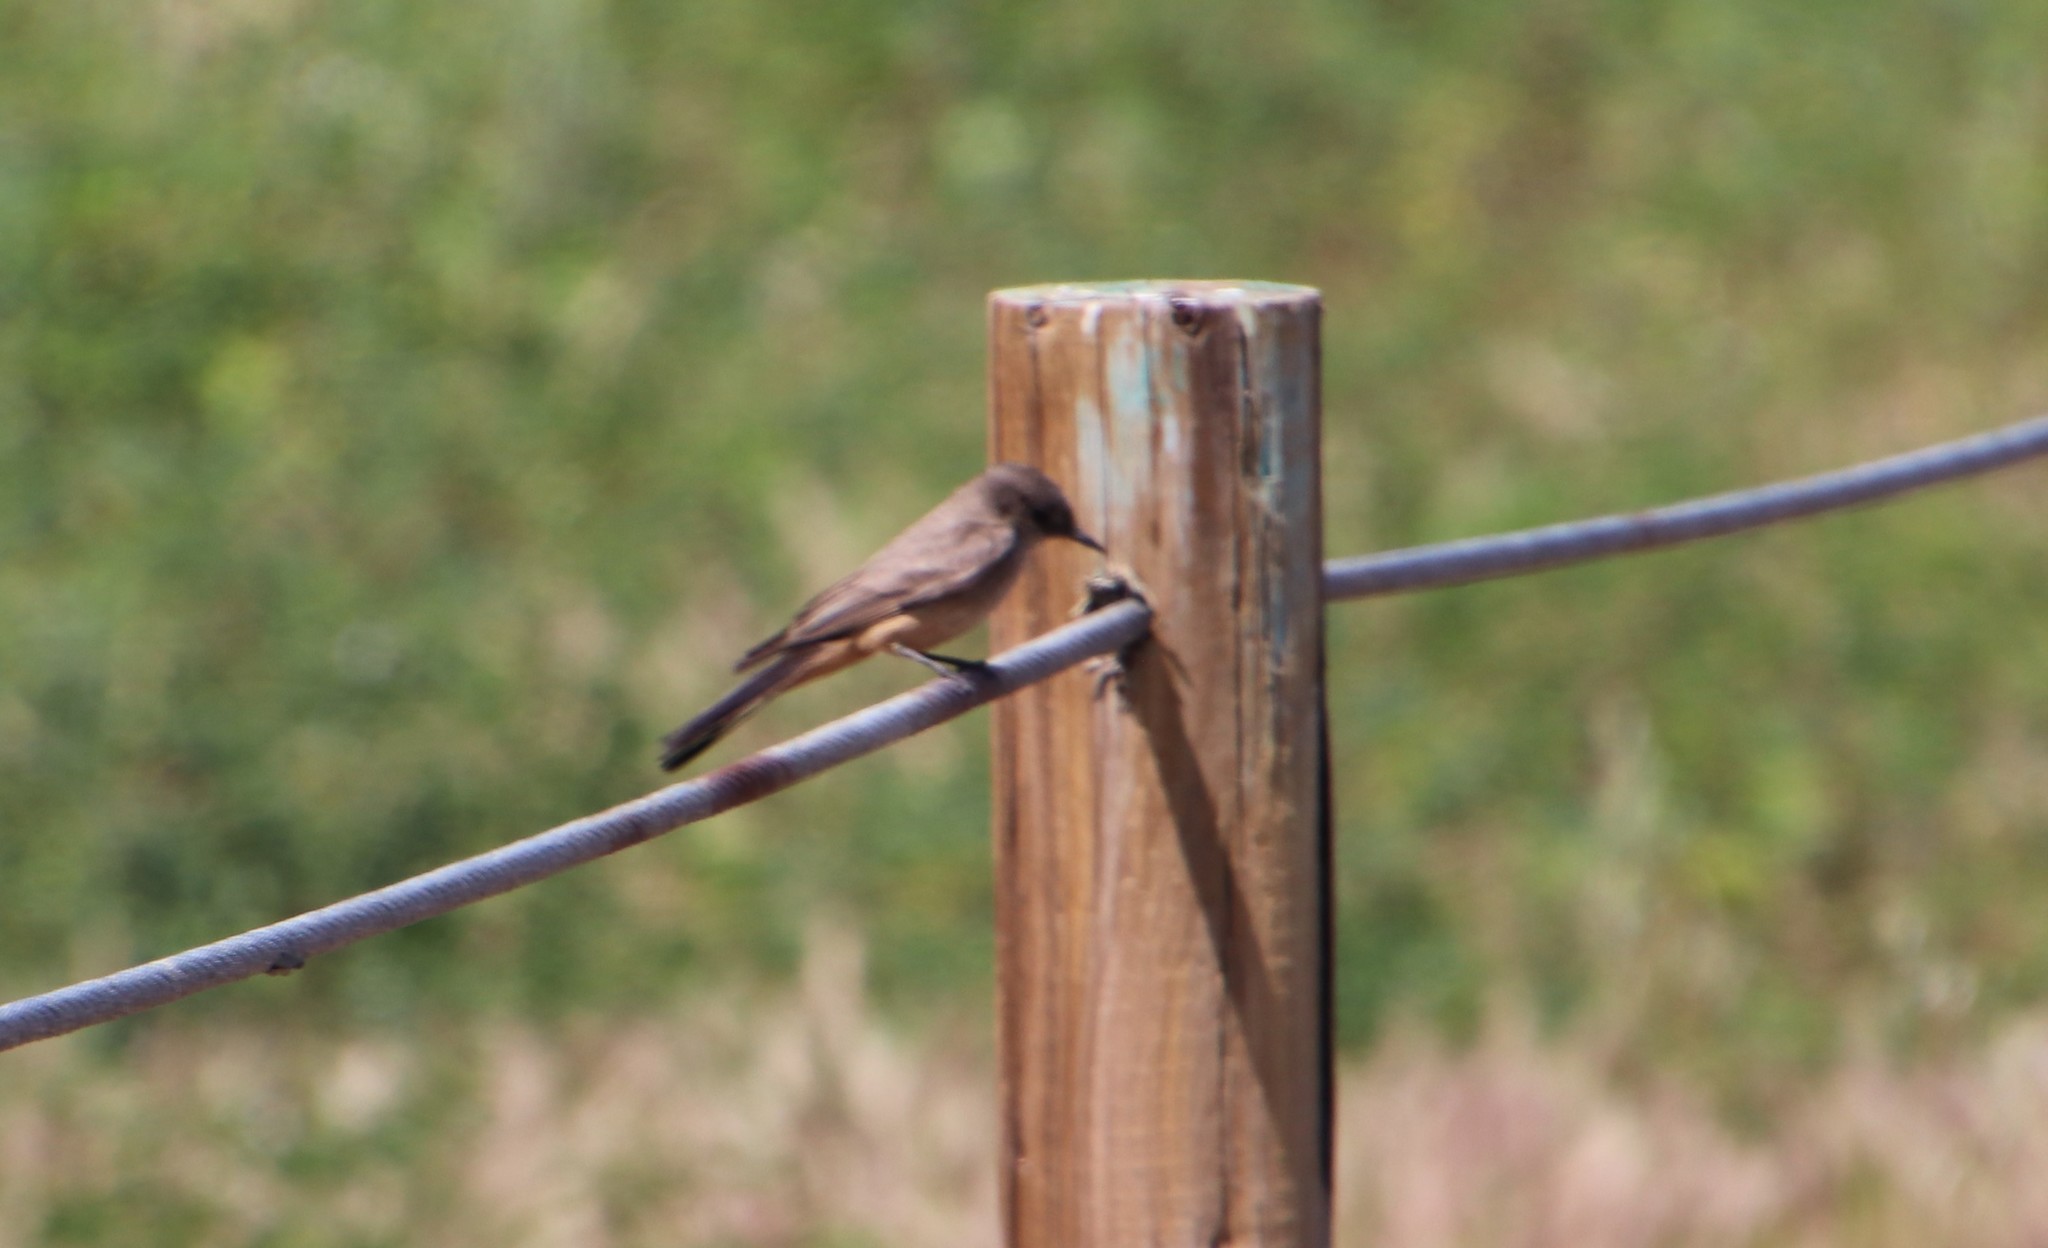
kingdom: Animalia
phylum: Chordata
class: Aves
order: Passeriformes
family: Tyrannidae
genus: Sayornis
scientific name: Sayornis saya
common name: Say's phoebe
